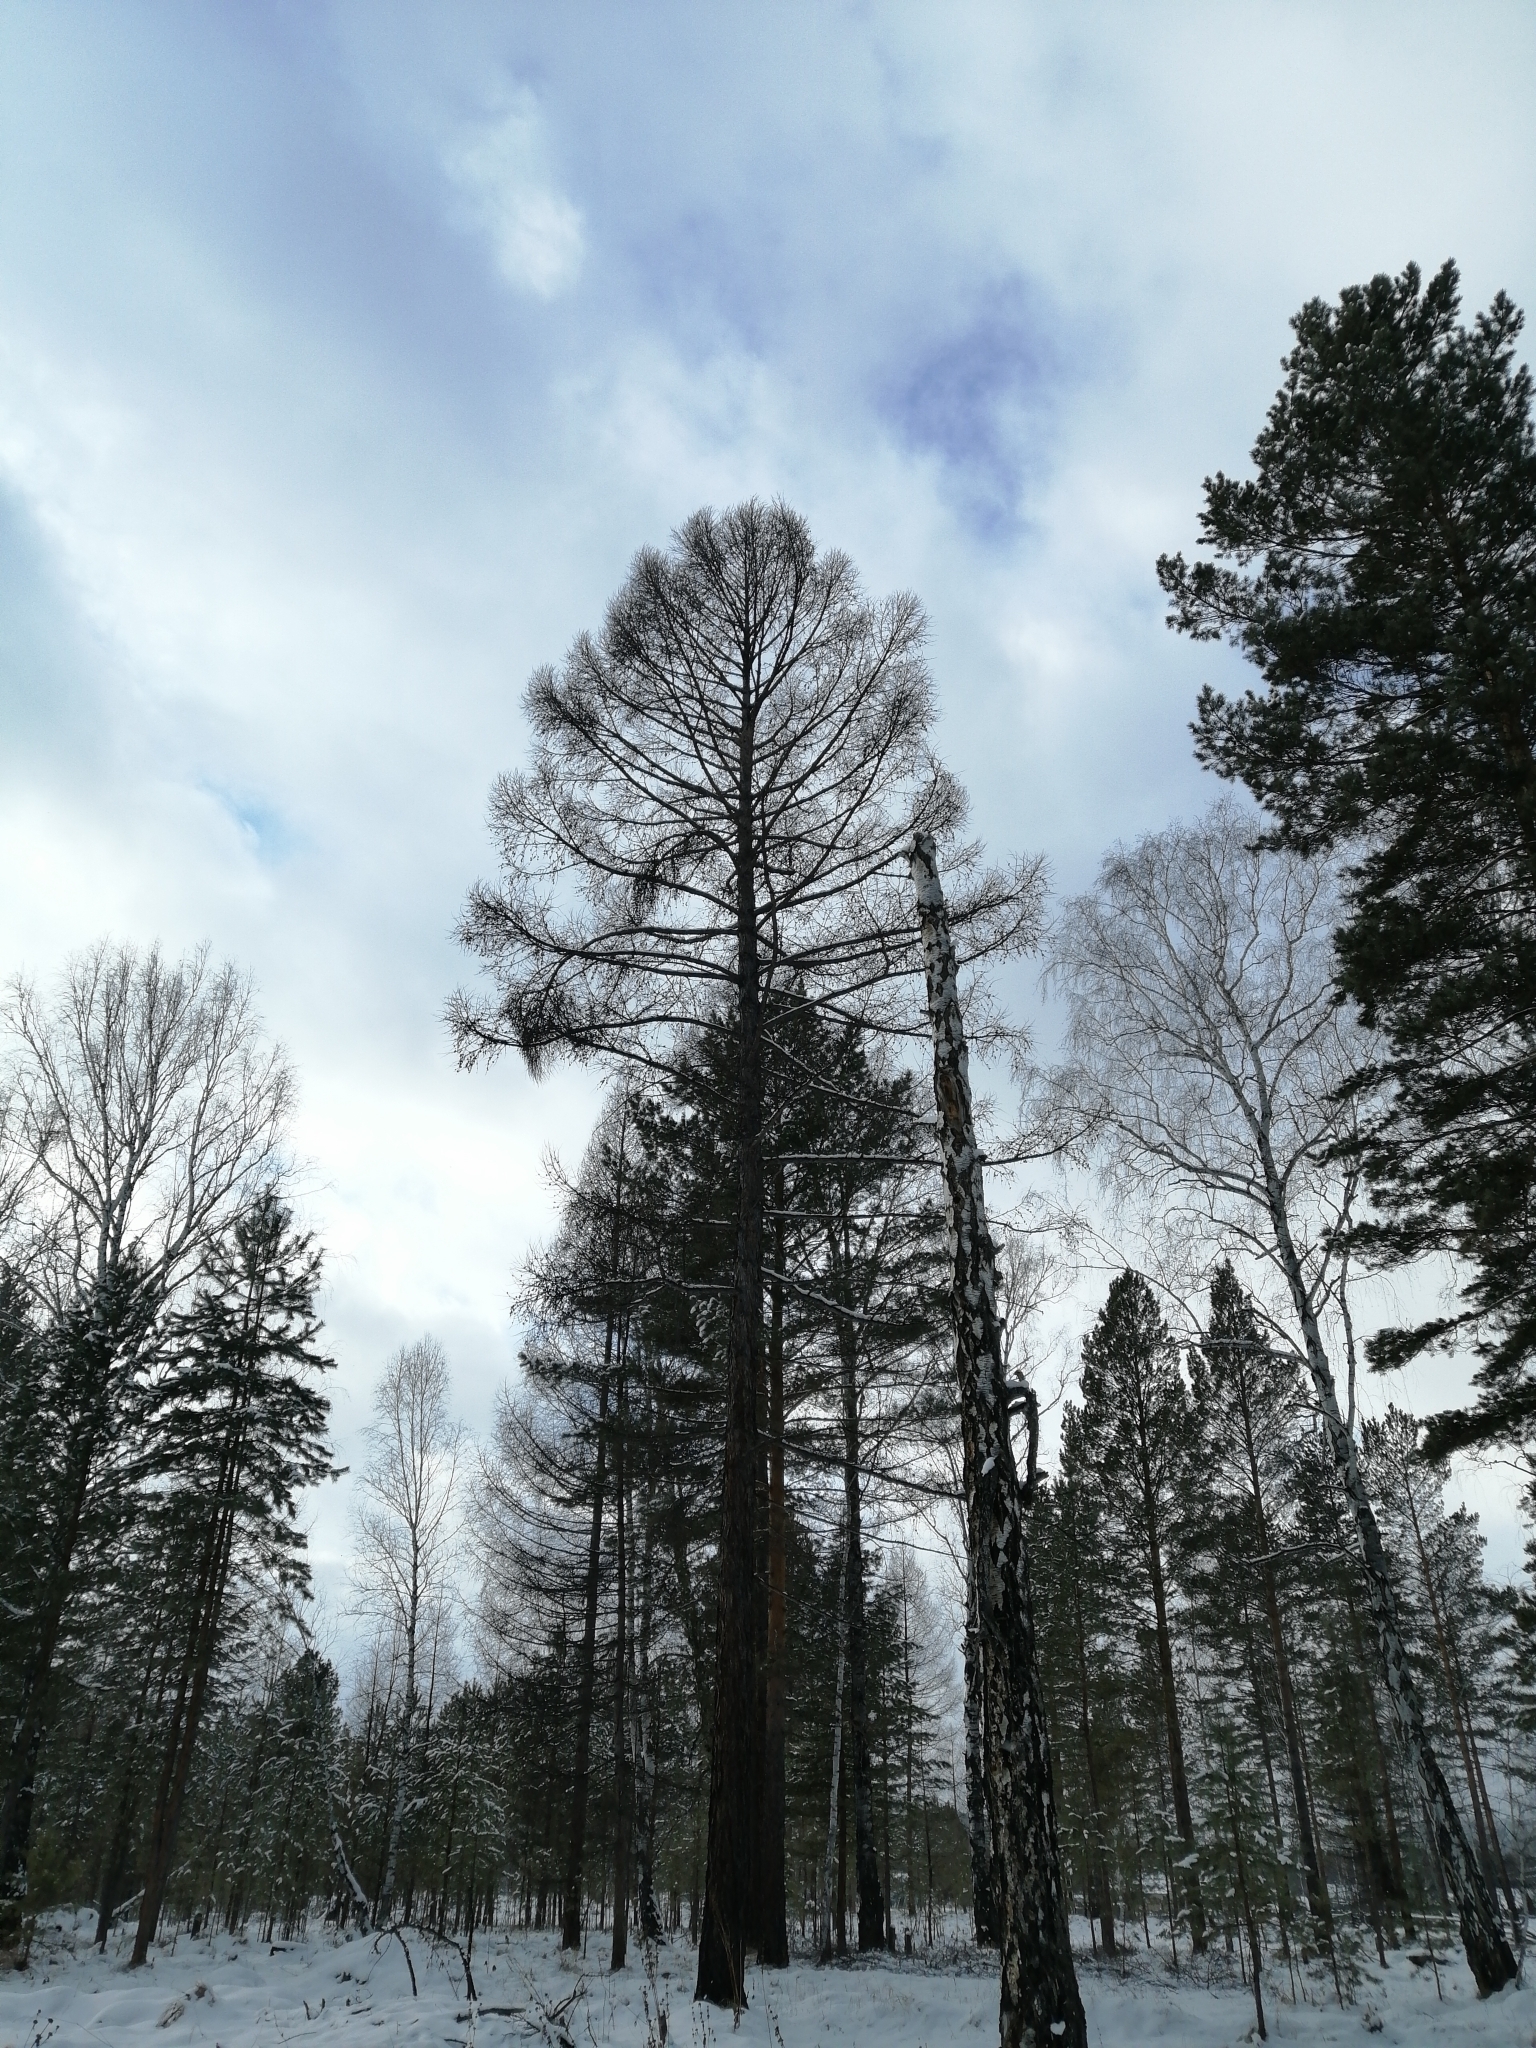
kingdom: Plantae
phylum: Tracheophyta
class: Pinopsida
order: Pinales
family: Pinaceae
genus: Larix
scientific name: Larix sibirica
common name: Siberian larch
